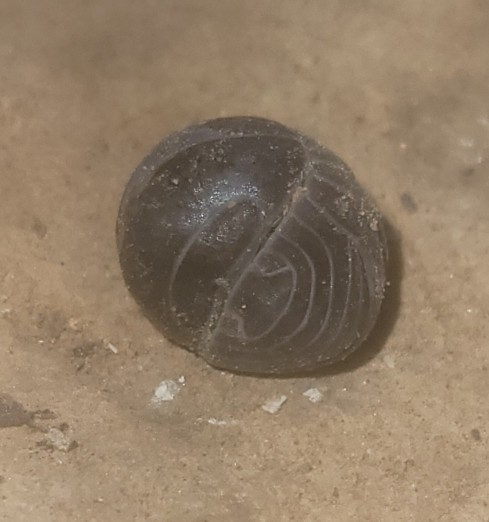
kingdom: Animalia
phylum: Arthropoda
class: Malacostraca
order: Isopoda
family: Armadillidae
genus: Armadillo
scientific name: Armadillo officinalis
